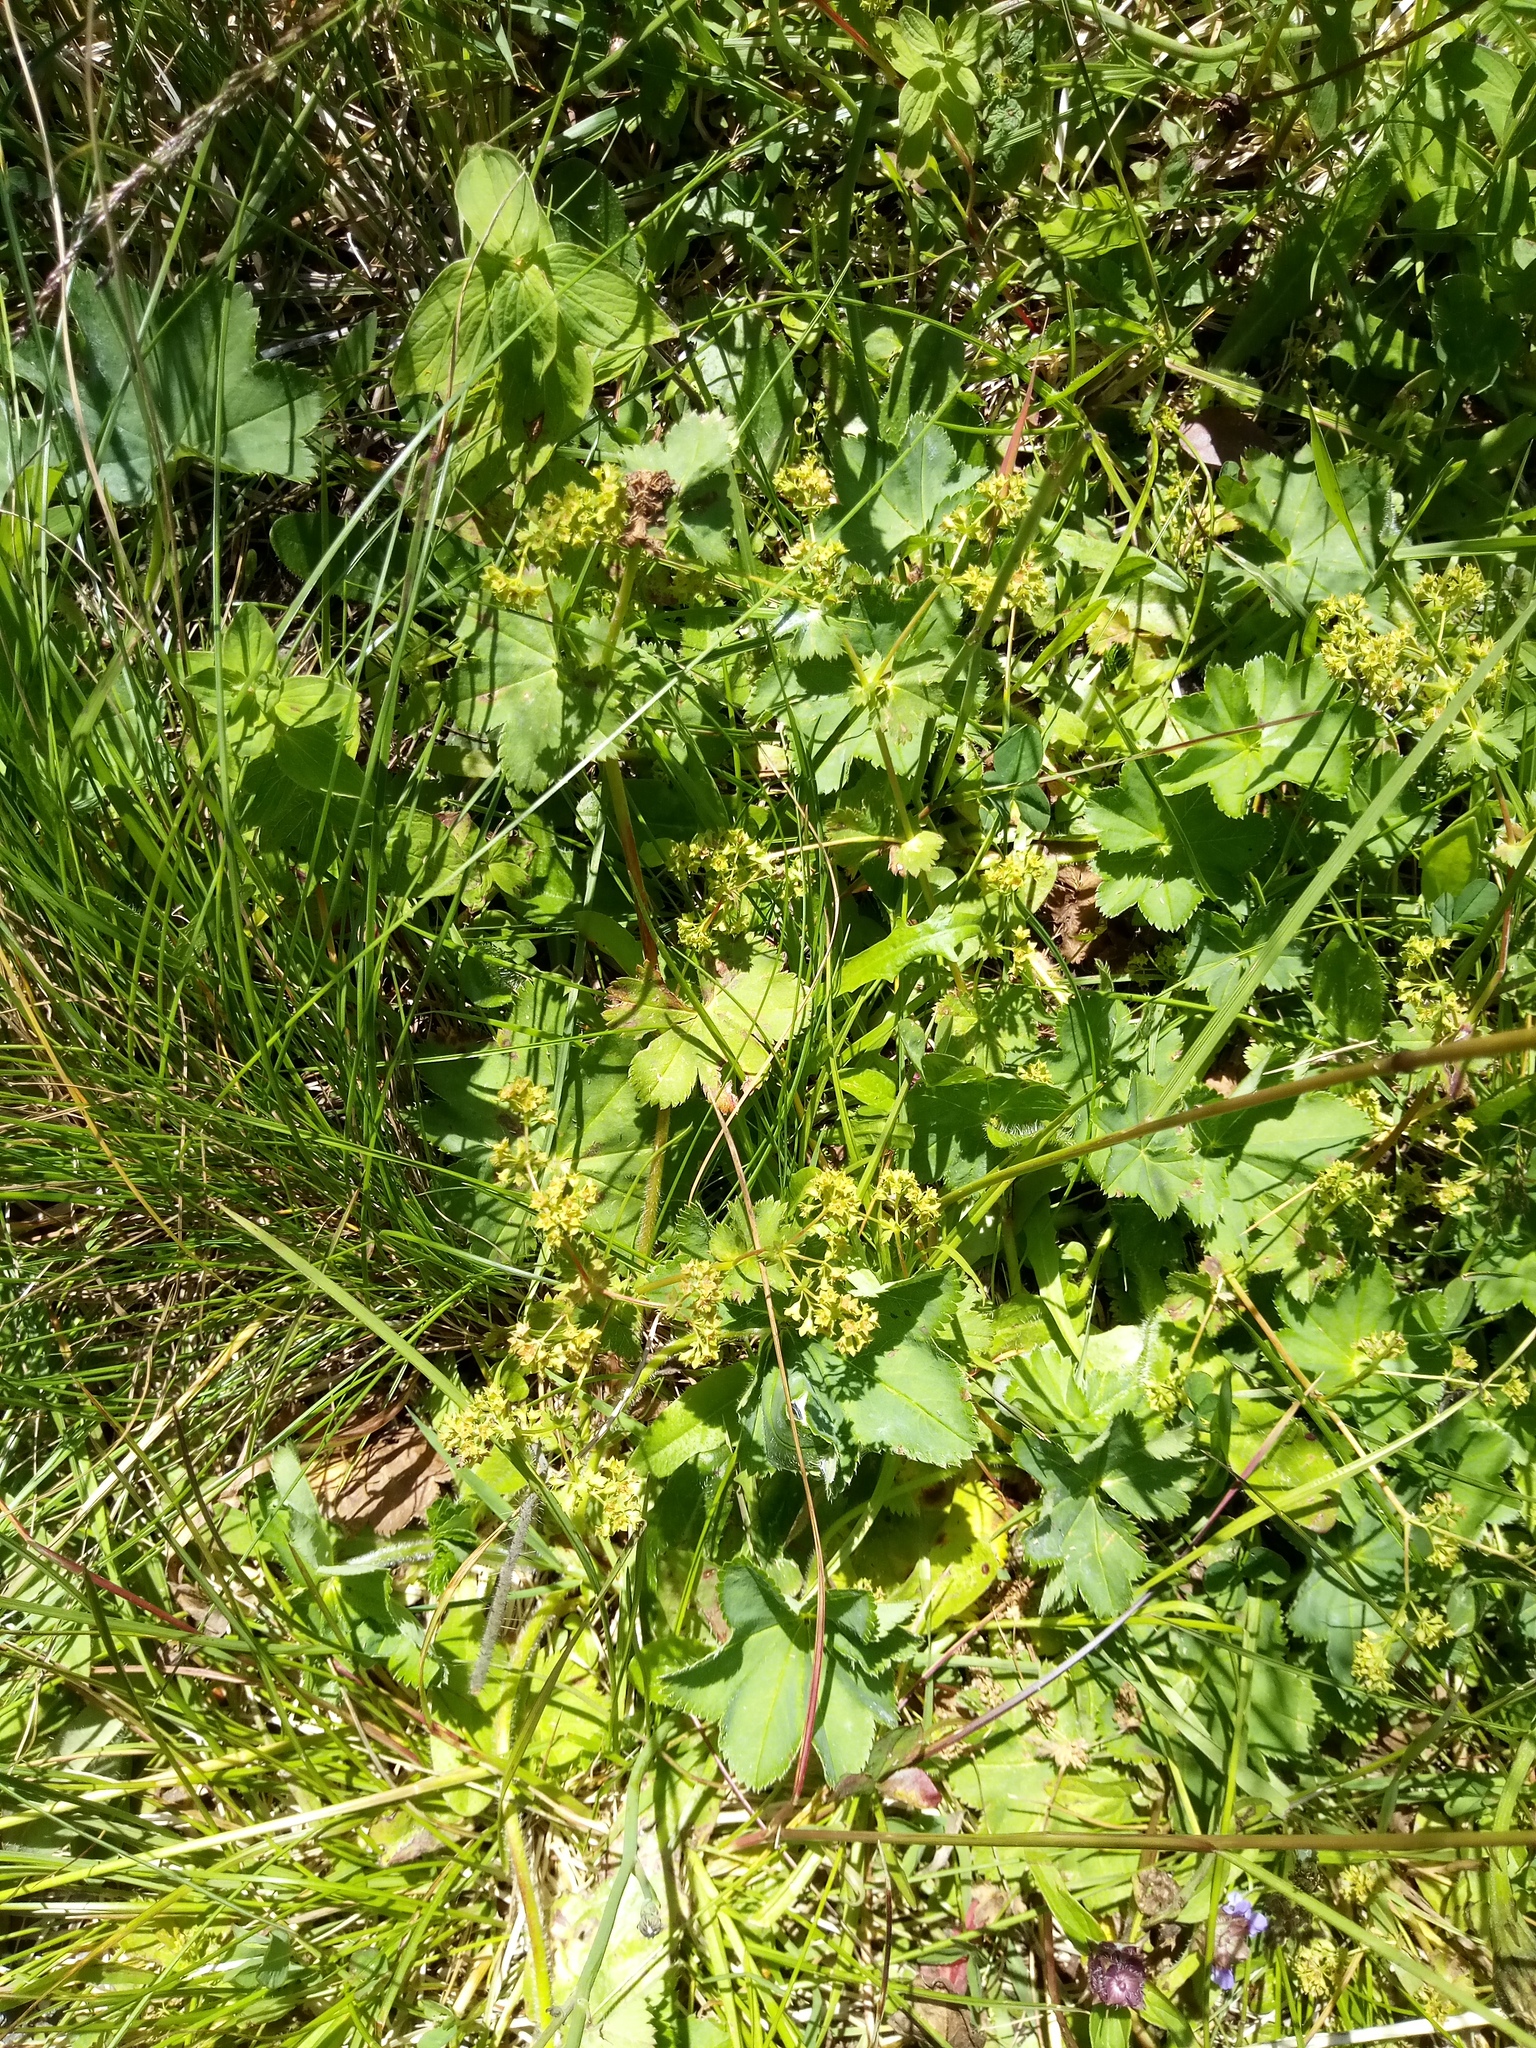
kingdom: Plantae
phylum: Tracheophyta
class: Magnoliopsida
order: Rosales
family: Rosaceae
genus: Alchemilla
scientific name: Alchemilla cymatophylla
